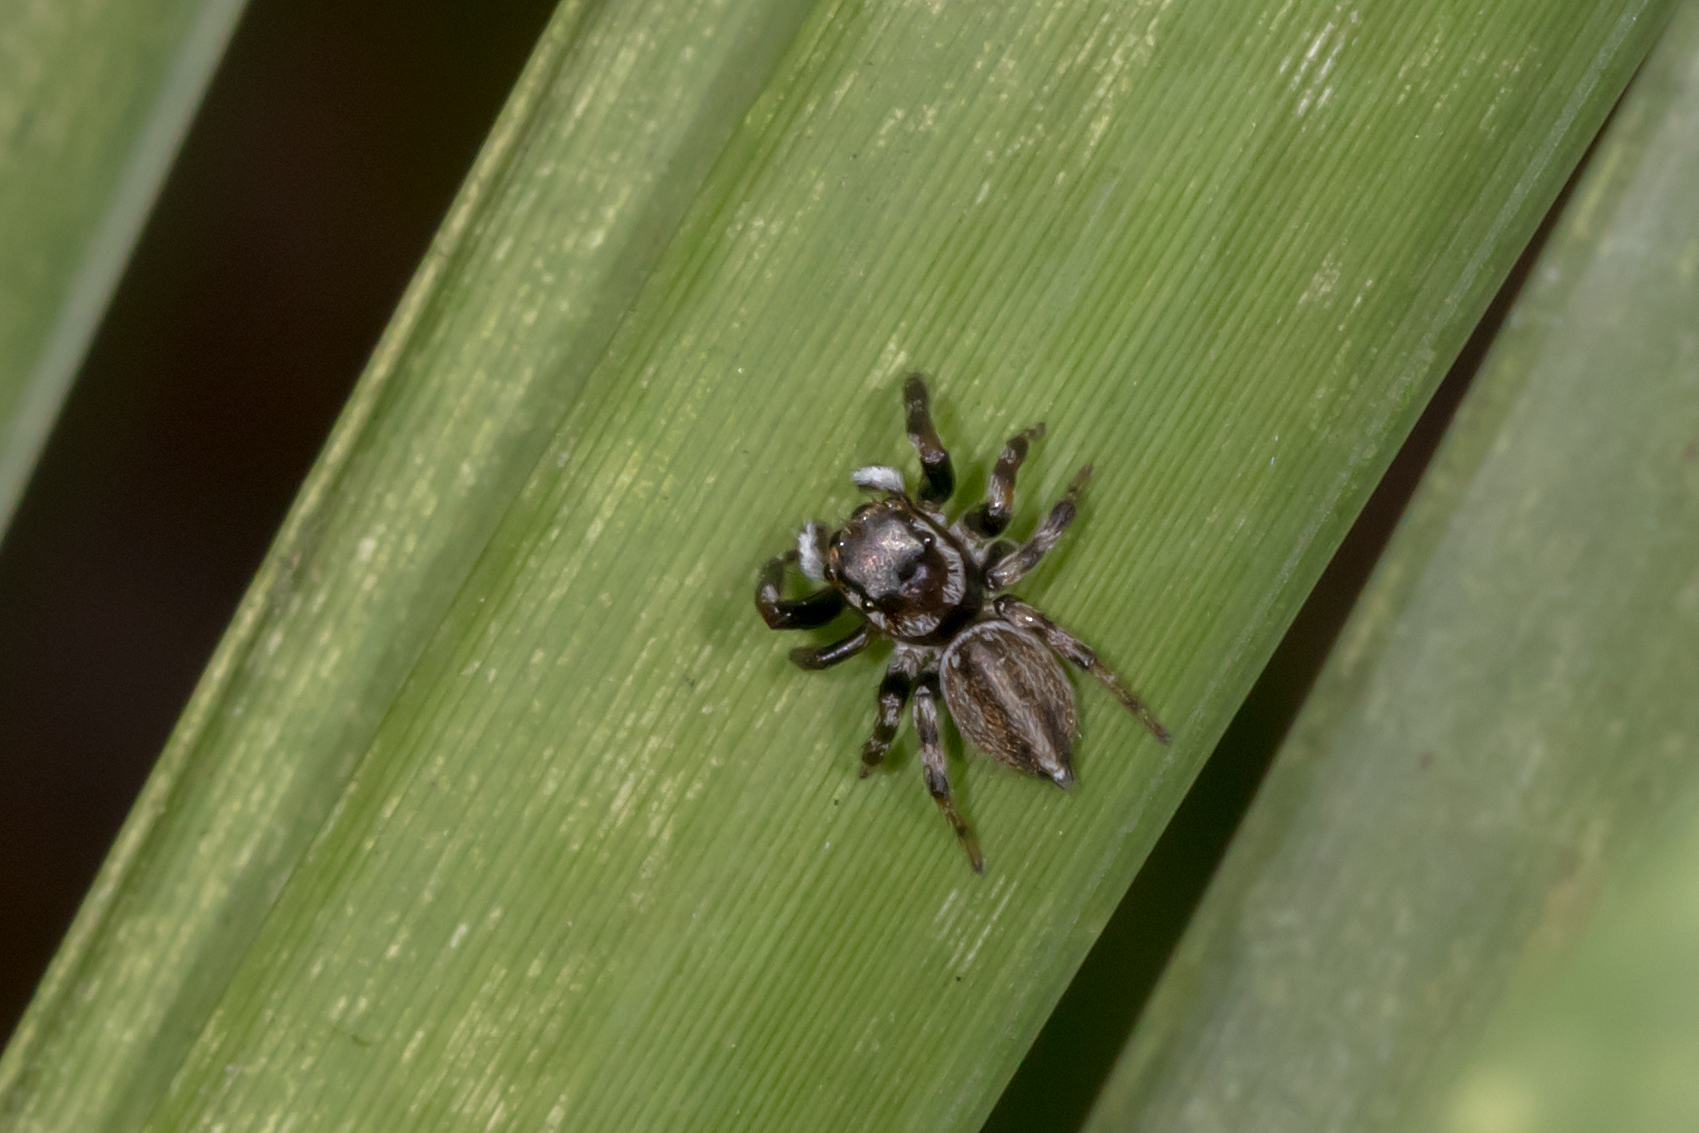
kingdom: Animalia
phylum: Arthropoda
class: Arachnida
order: Araneae
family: Salticidae
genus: Maratus
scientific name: Maratus scutulatus
